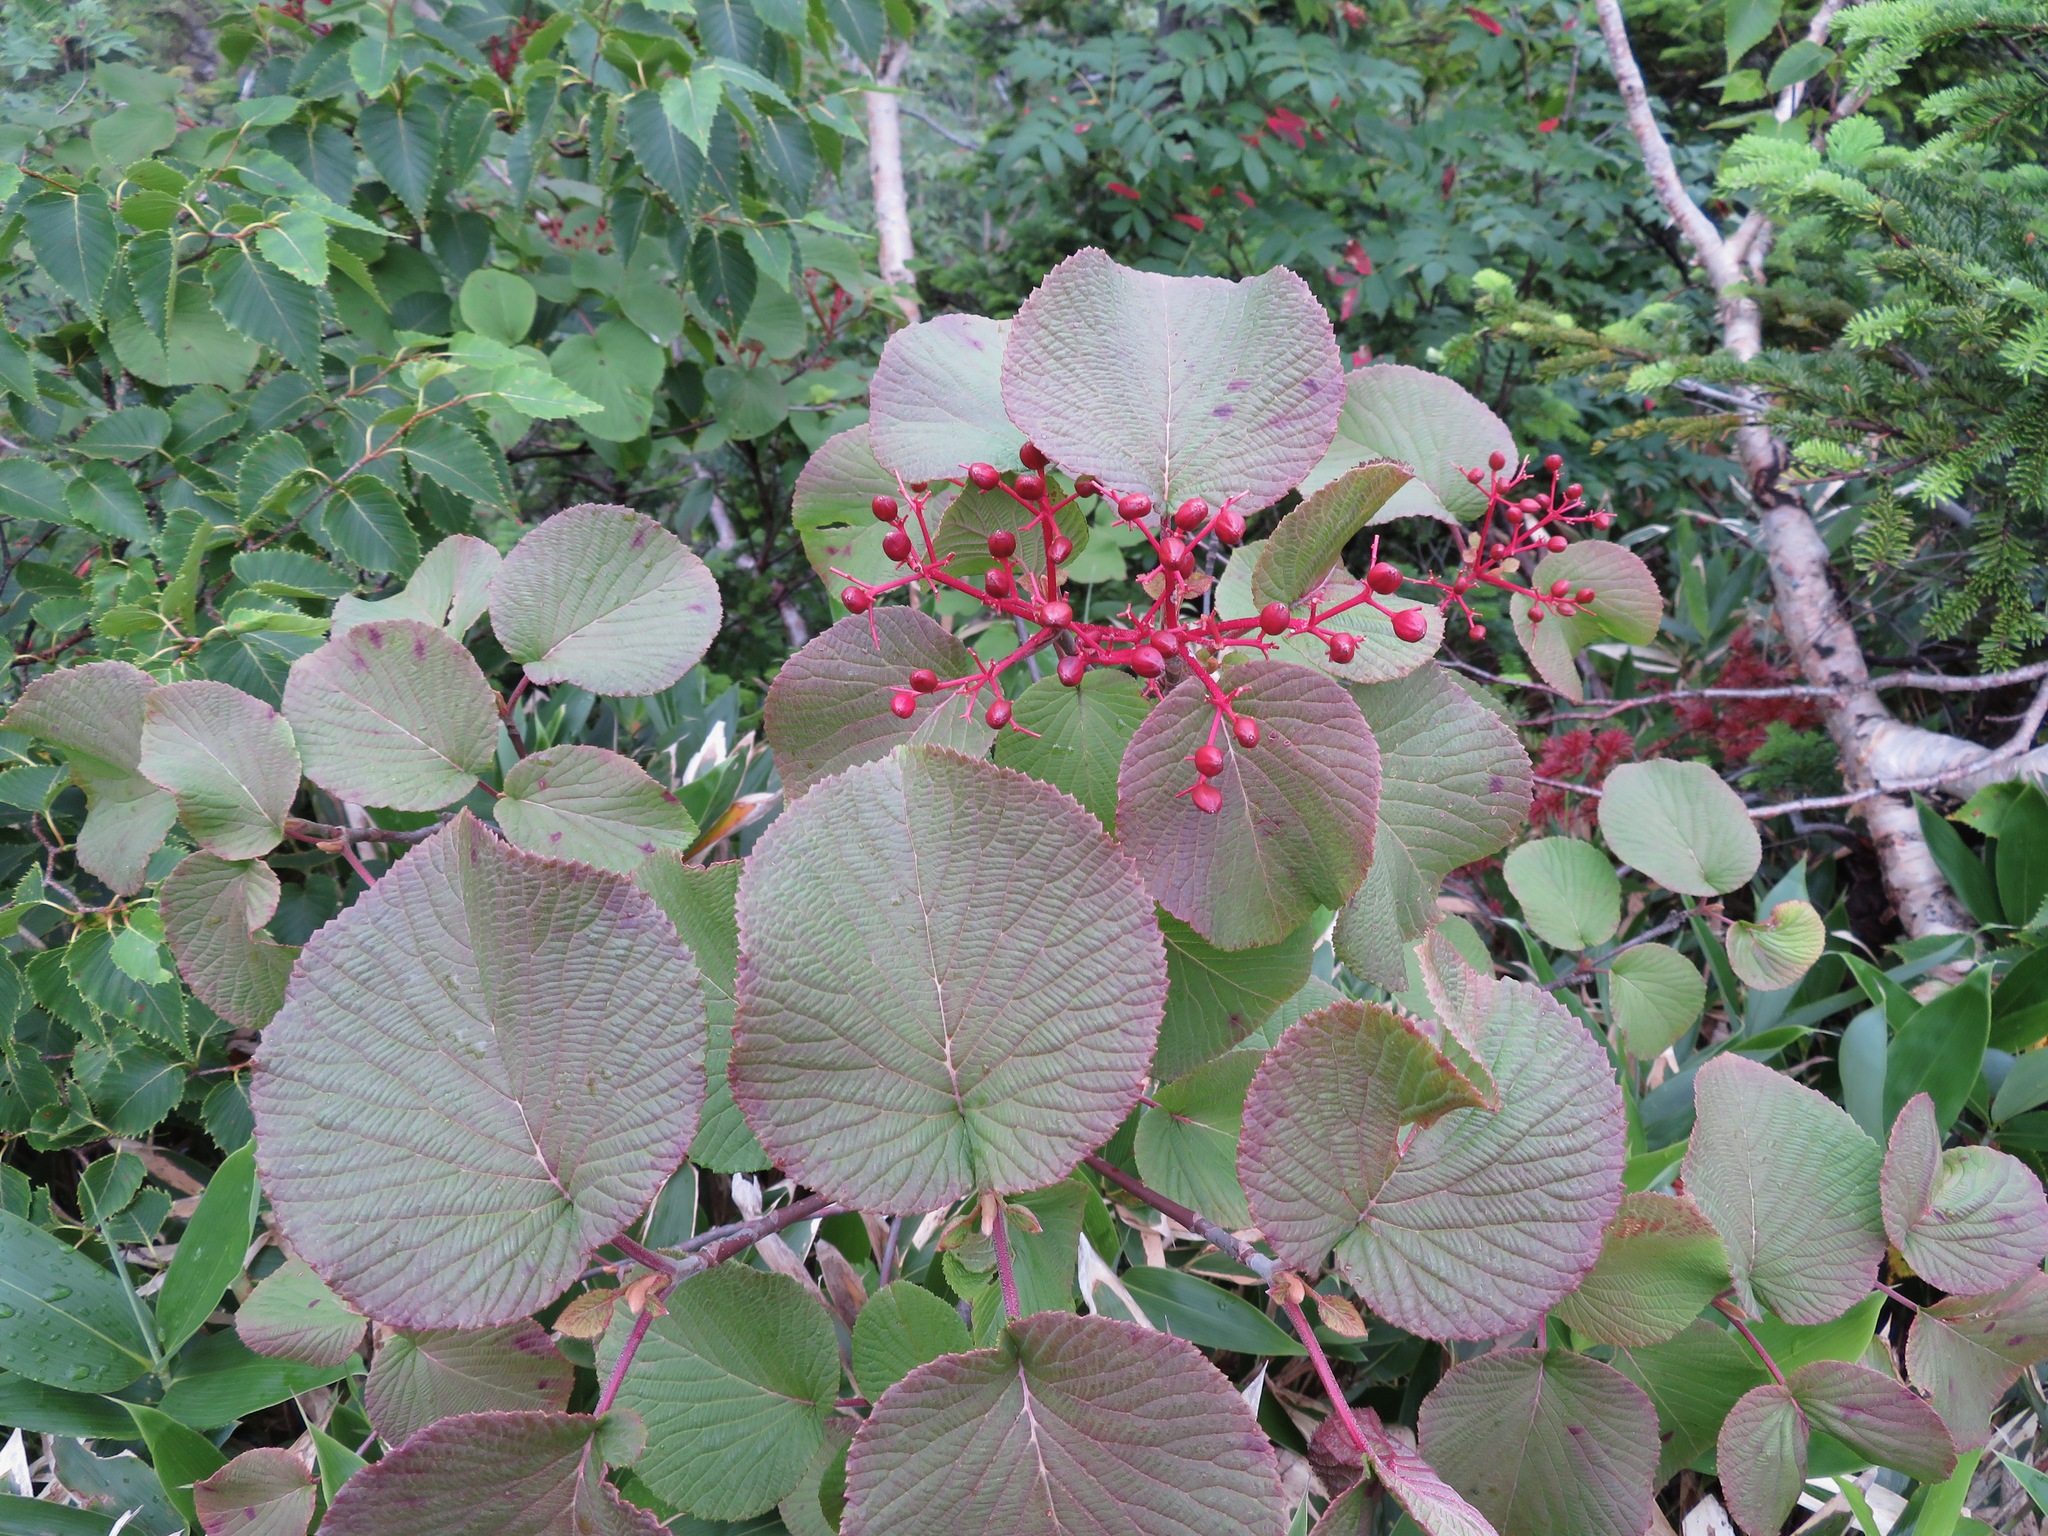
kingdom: Plantae
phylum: Tracheophyta
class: Magnoliopsida
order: Dipsacales
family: Viburnaceae
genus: Viburnum
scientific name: Viburnum furcatum
